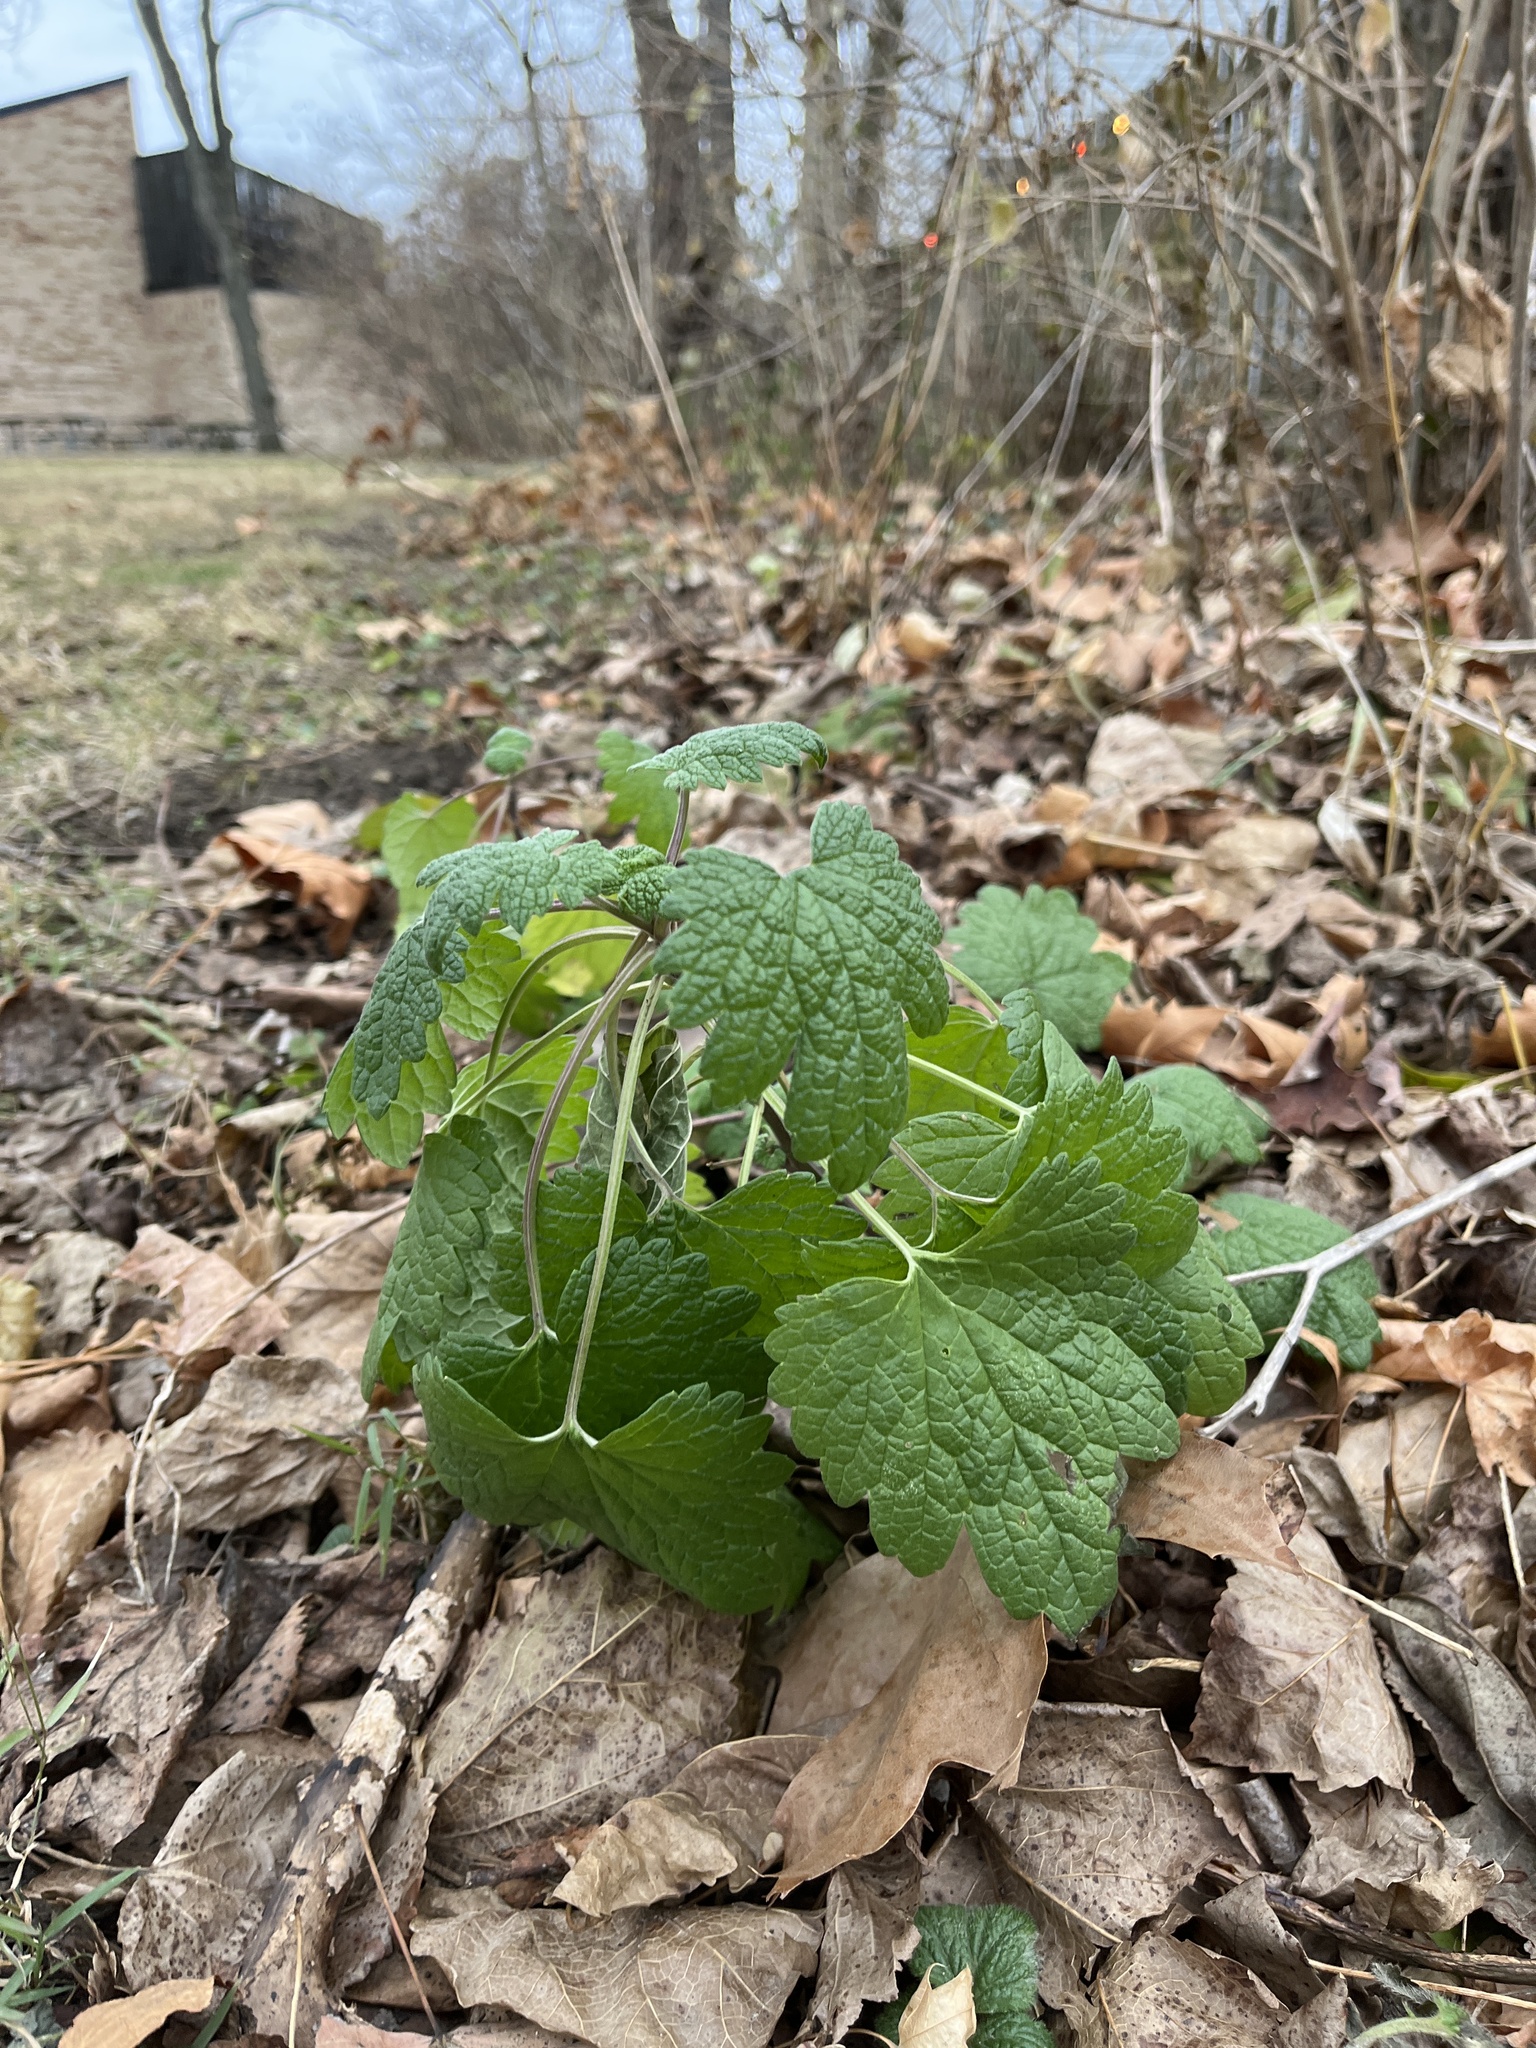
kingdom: Plantae
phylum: Tracheophyta
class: Magnoliopsida
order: Lamiales
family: Lamiaceae
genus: Leonurus
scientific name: Leonurus cardiaca
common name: Motherwort
